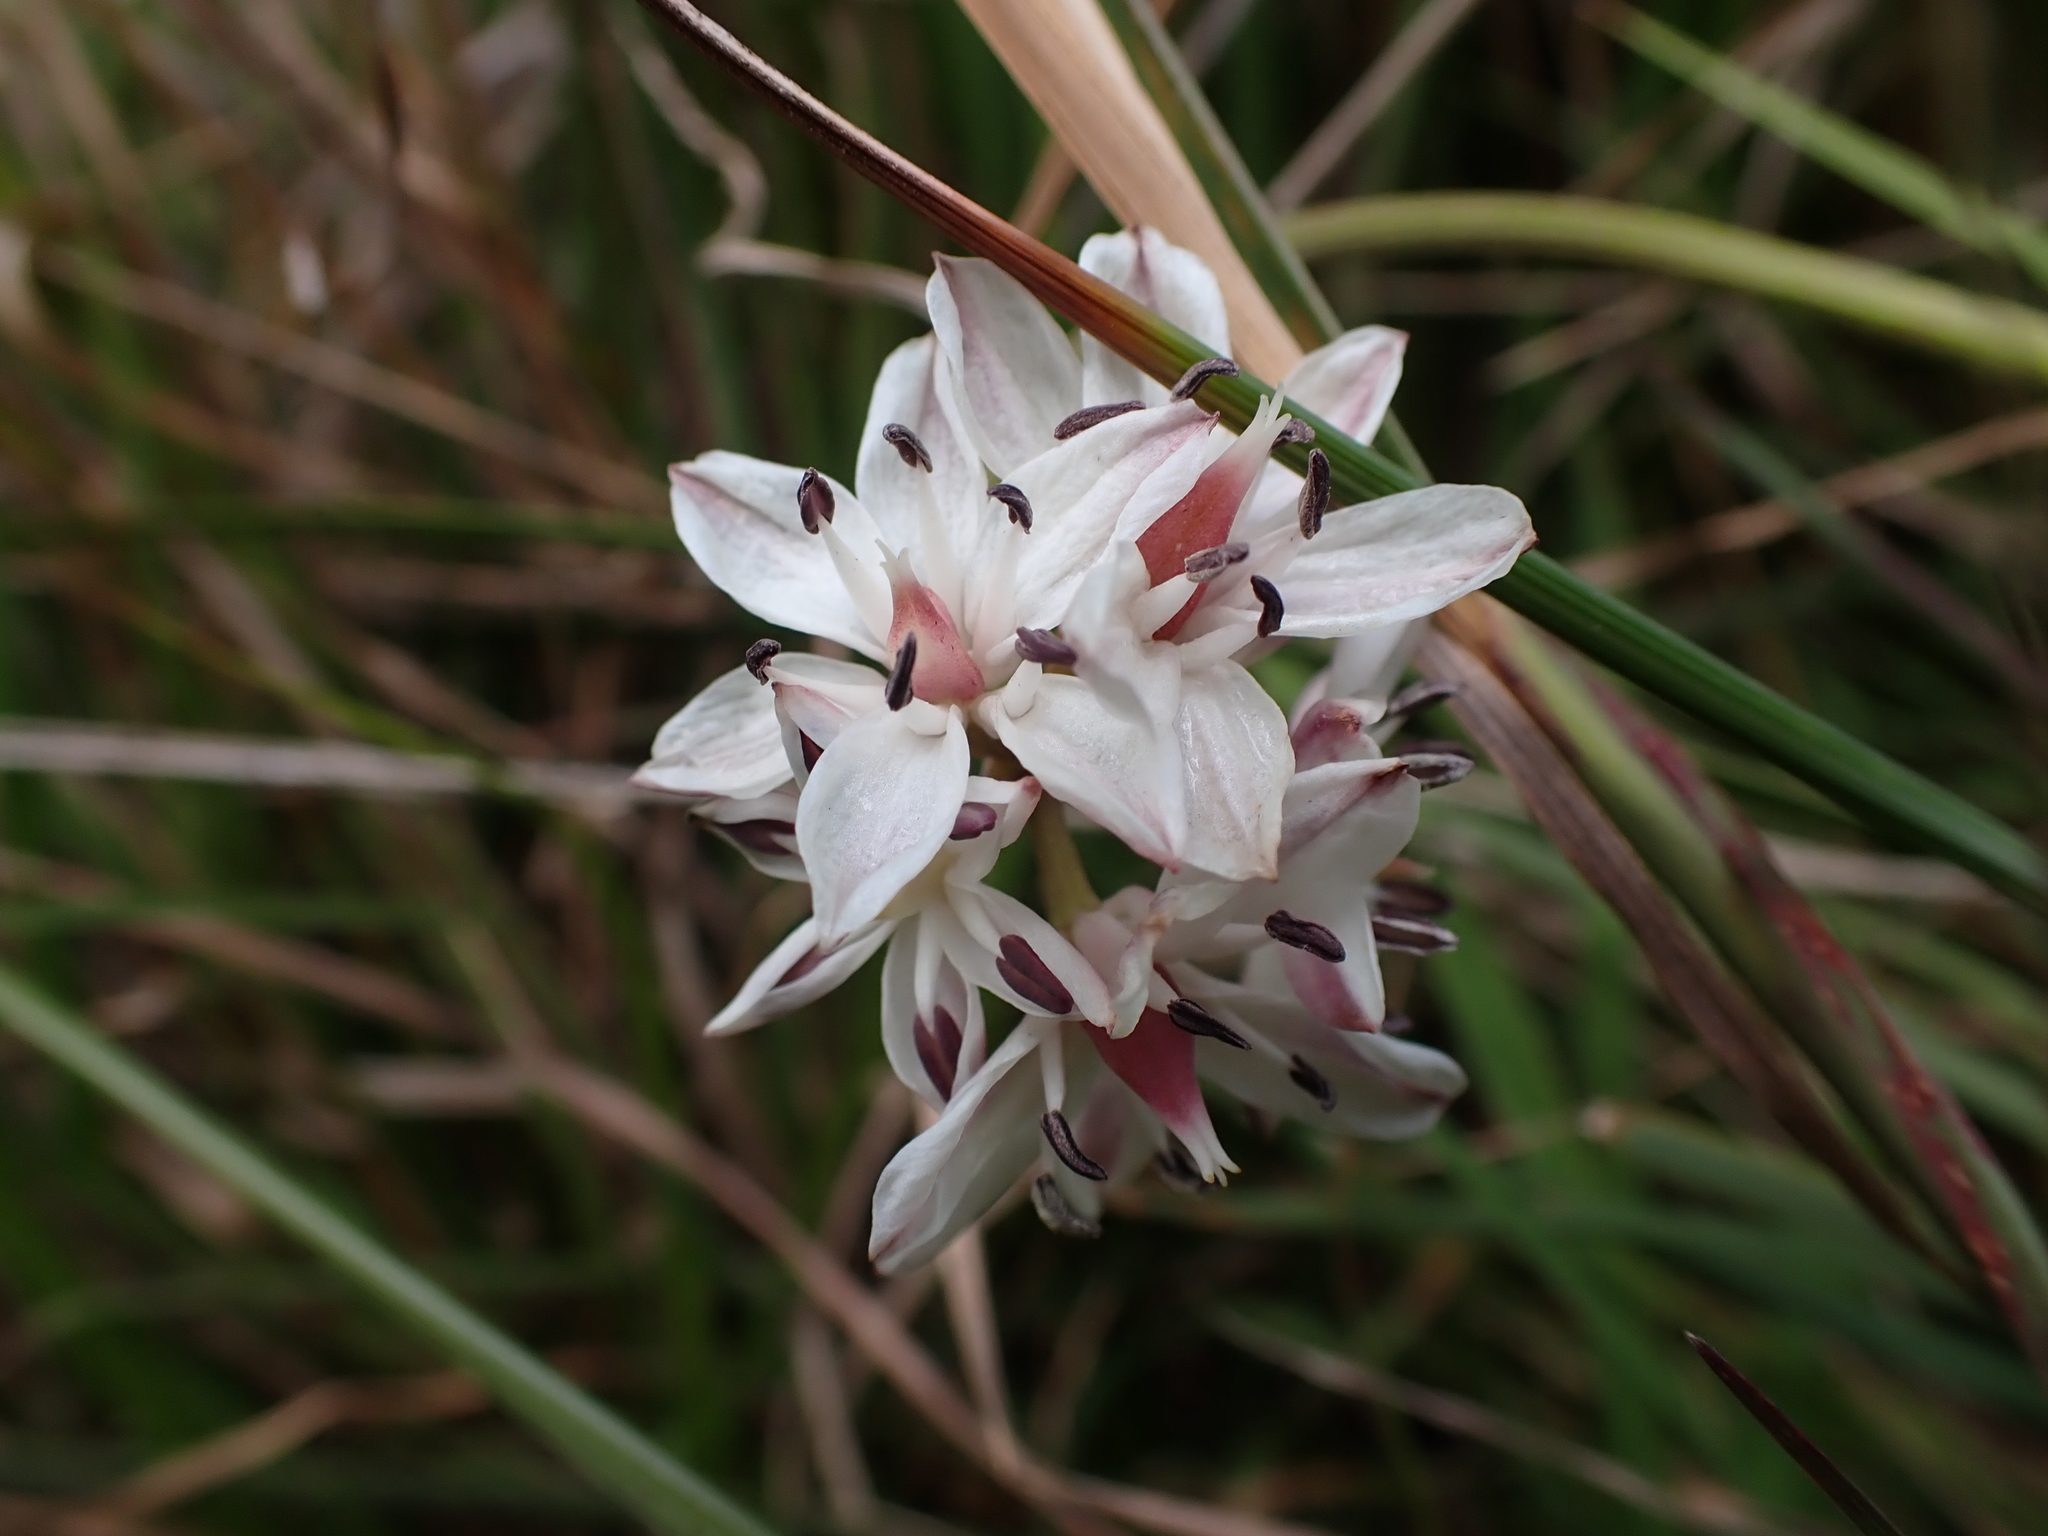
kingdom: Plantae
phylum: Tracheophyta
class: Liliopsida
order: Liliales
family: Colchicaceae
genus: Burchardia
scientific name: Burchardia umbellata
